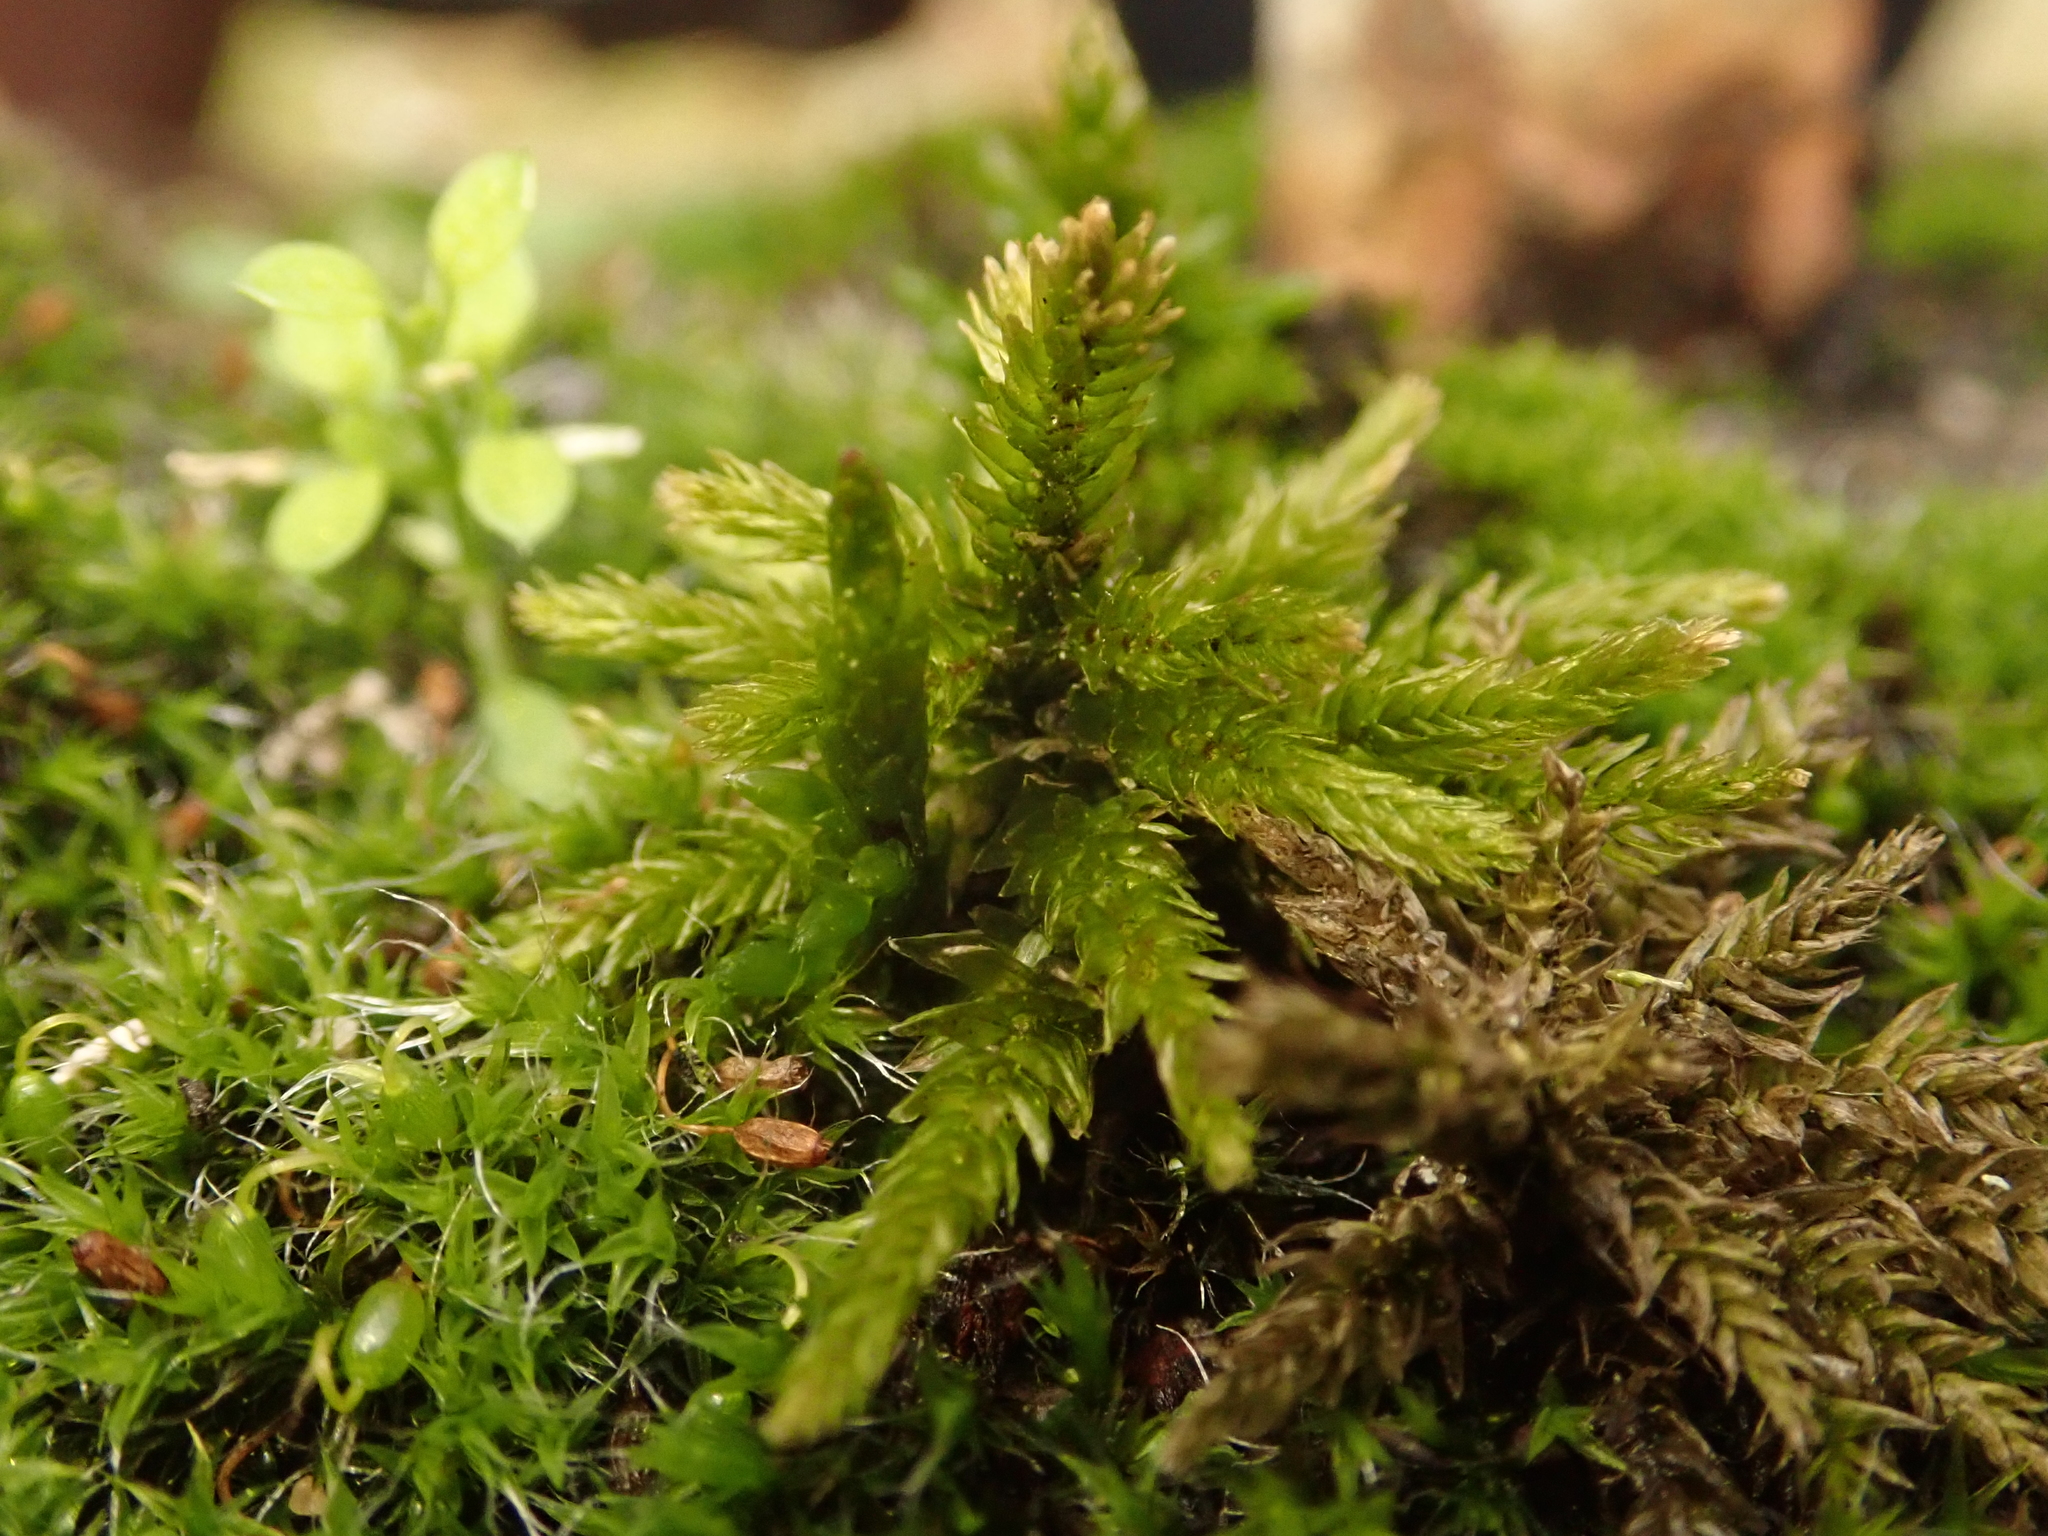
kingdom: Plantae
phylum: Bryophyta
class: Bryopsida
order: Hypnales
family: Climaciaceae
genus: Climacium
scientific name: Climacium dendroides
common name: Northern tree moss
